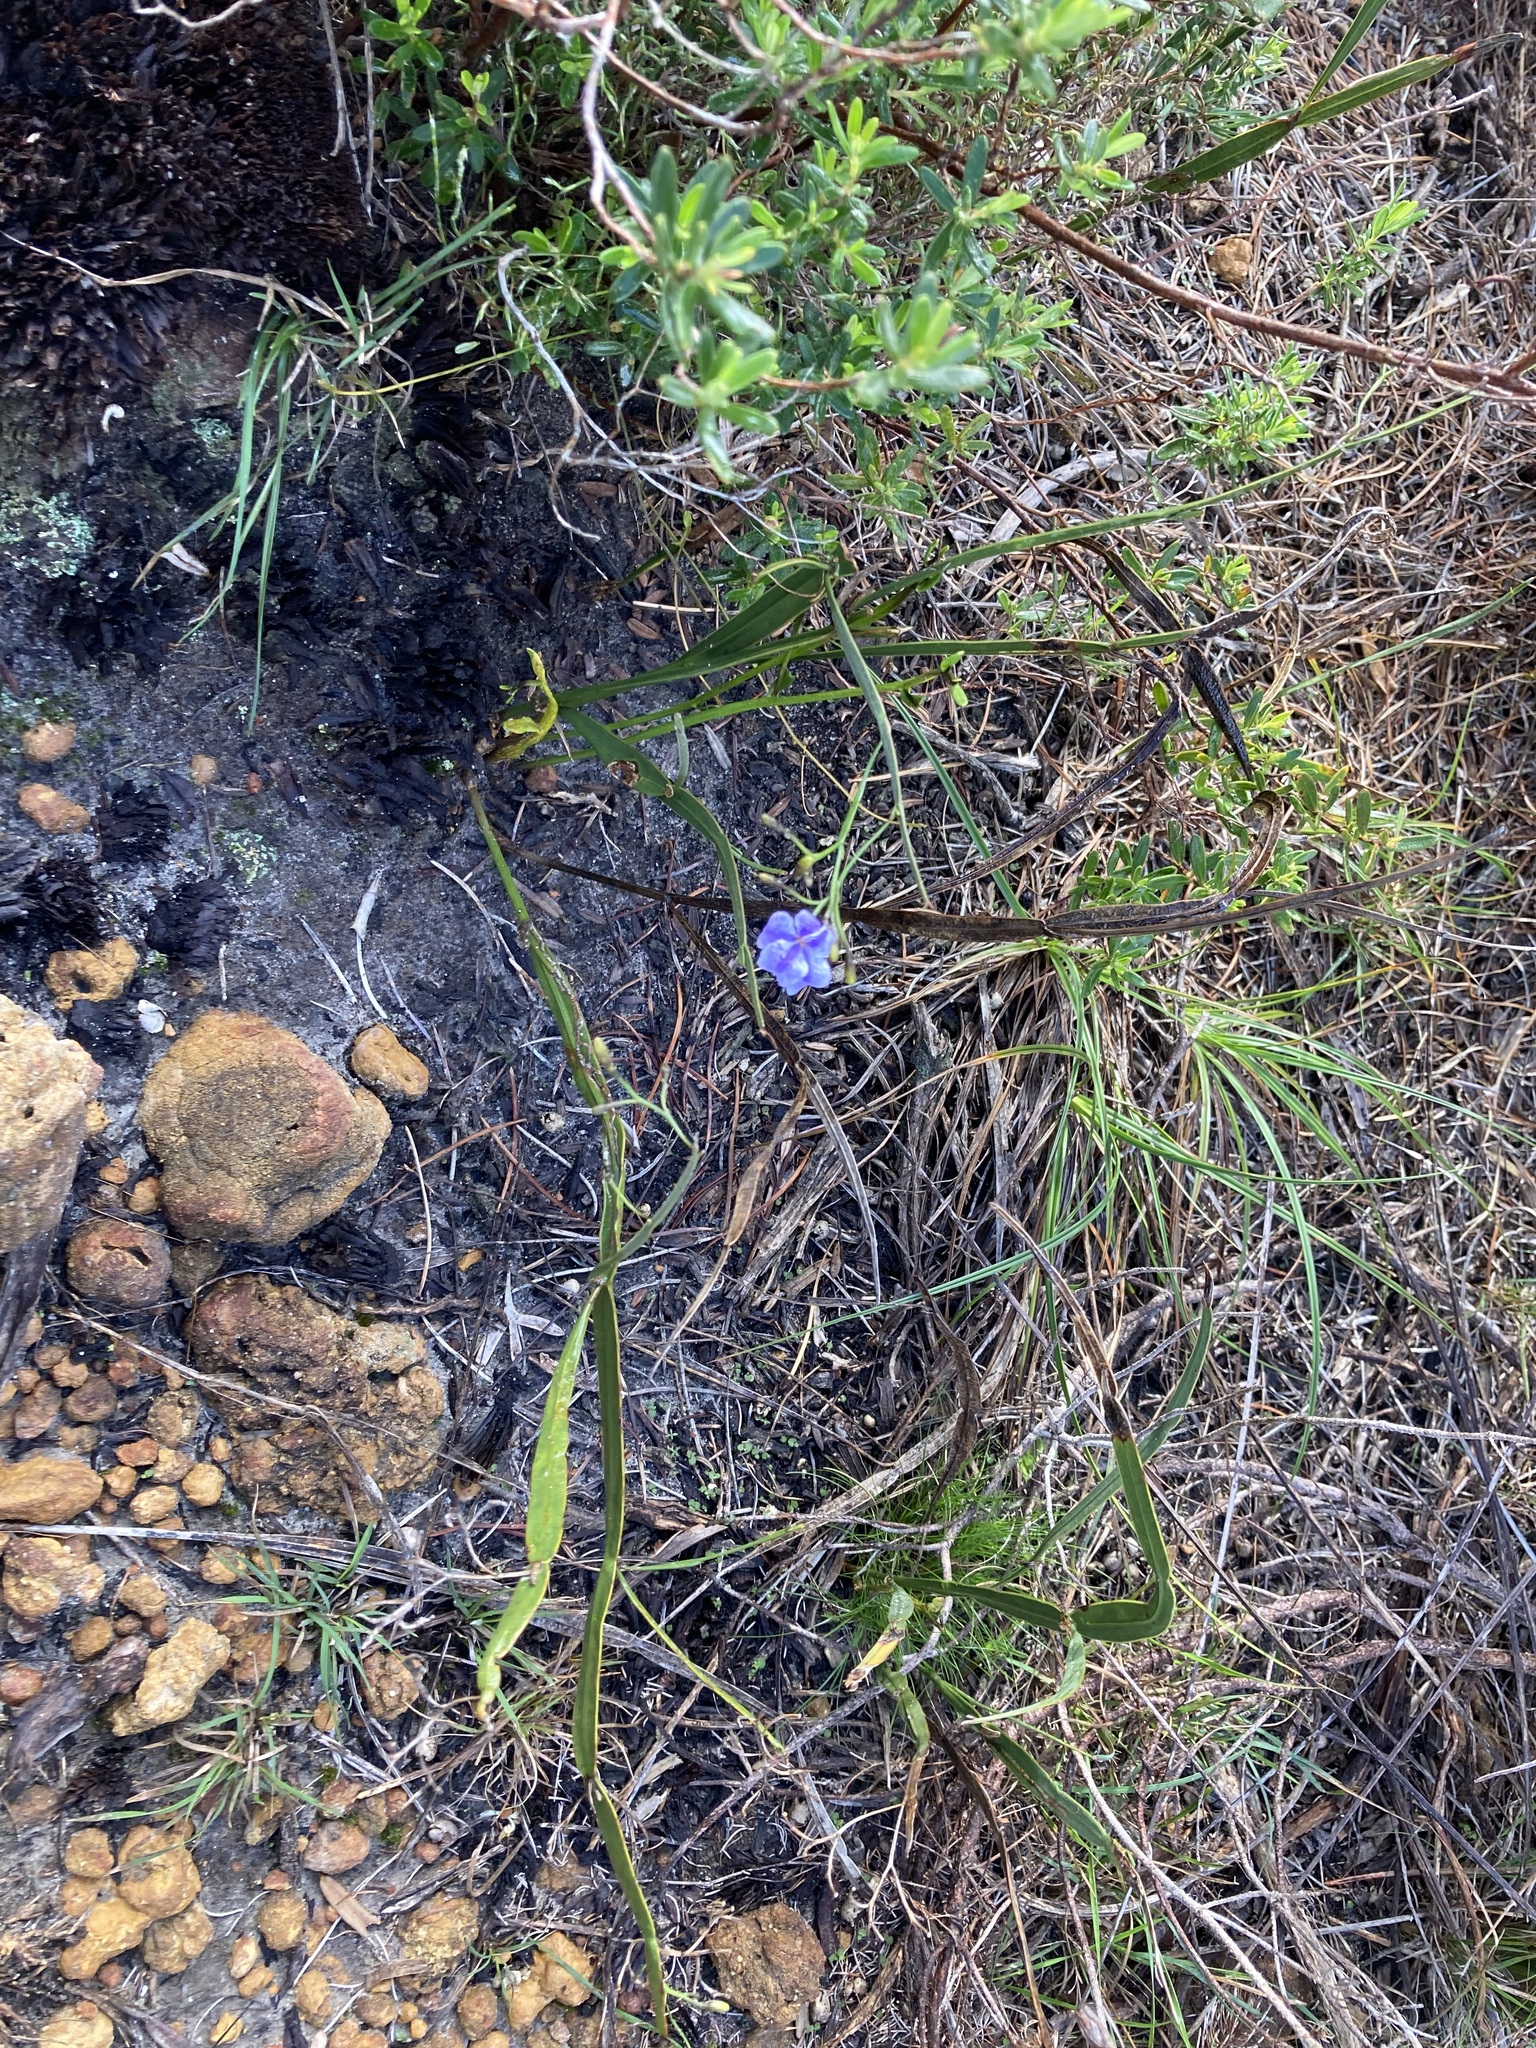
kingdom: Plantae
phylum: Tracheophyta
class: Magnoliopsida
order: Asterales
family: Goodeniaceae
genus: Dampiera
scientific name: Dampiera lindleyi
